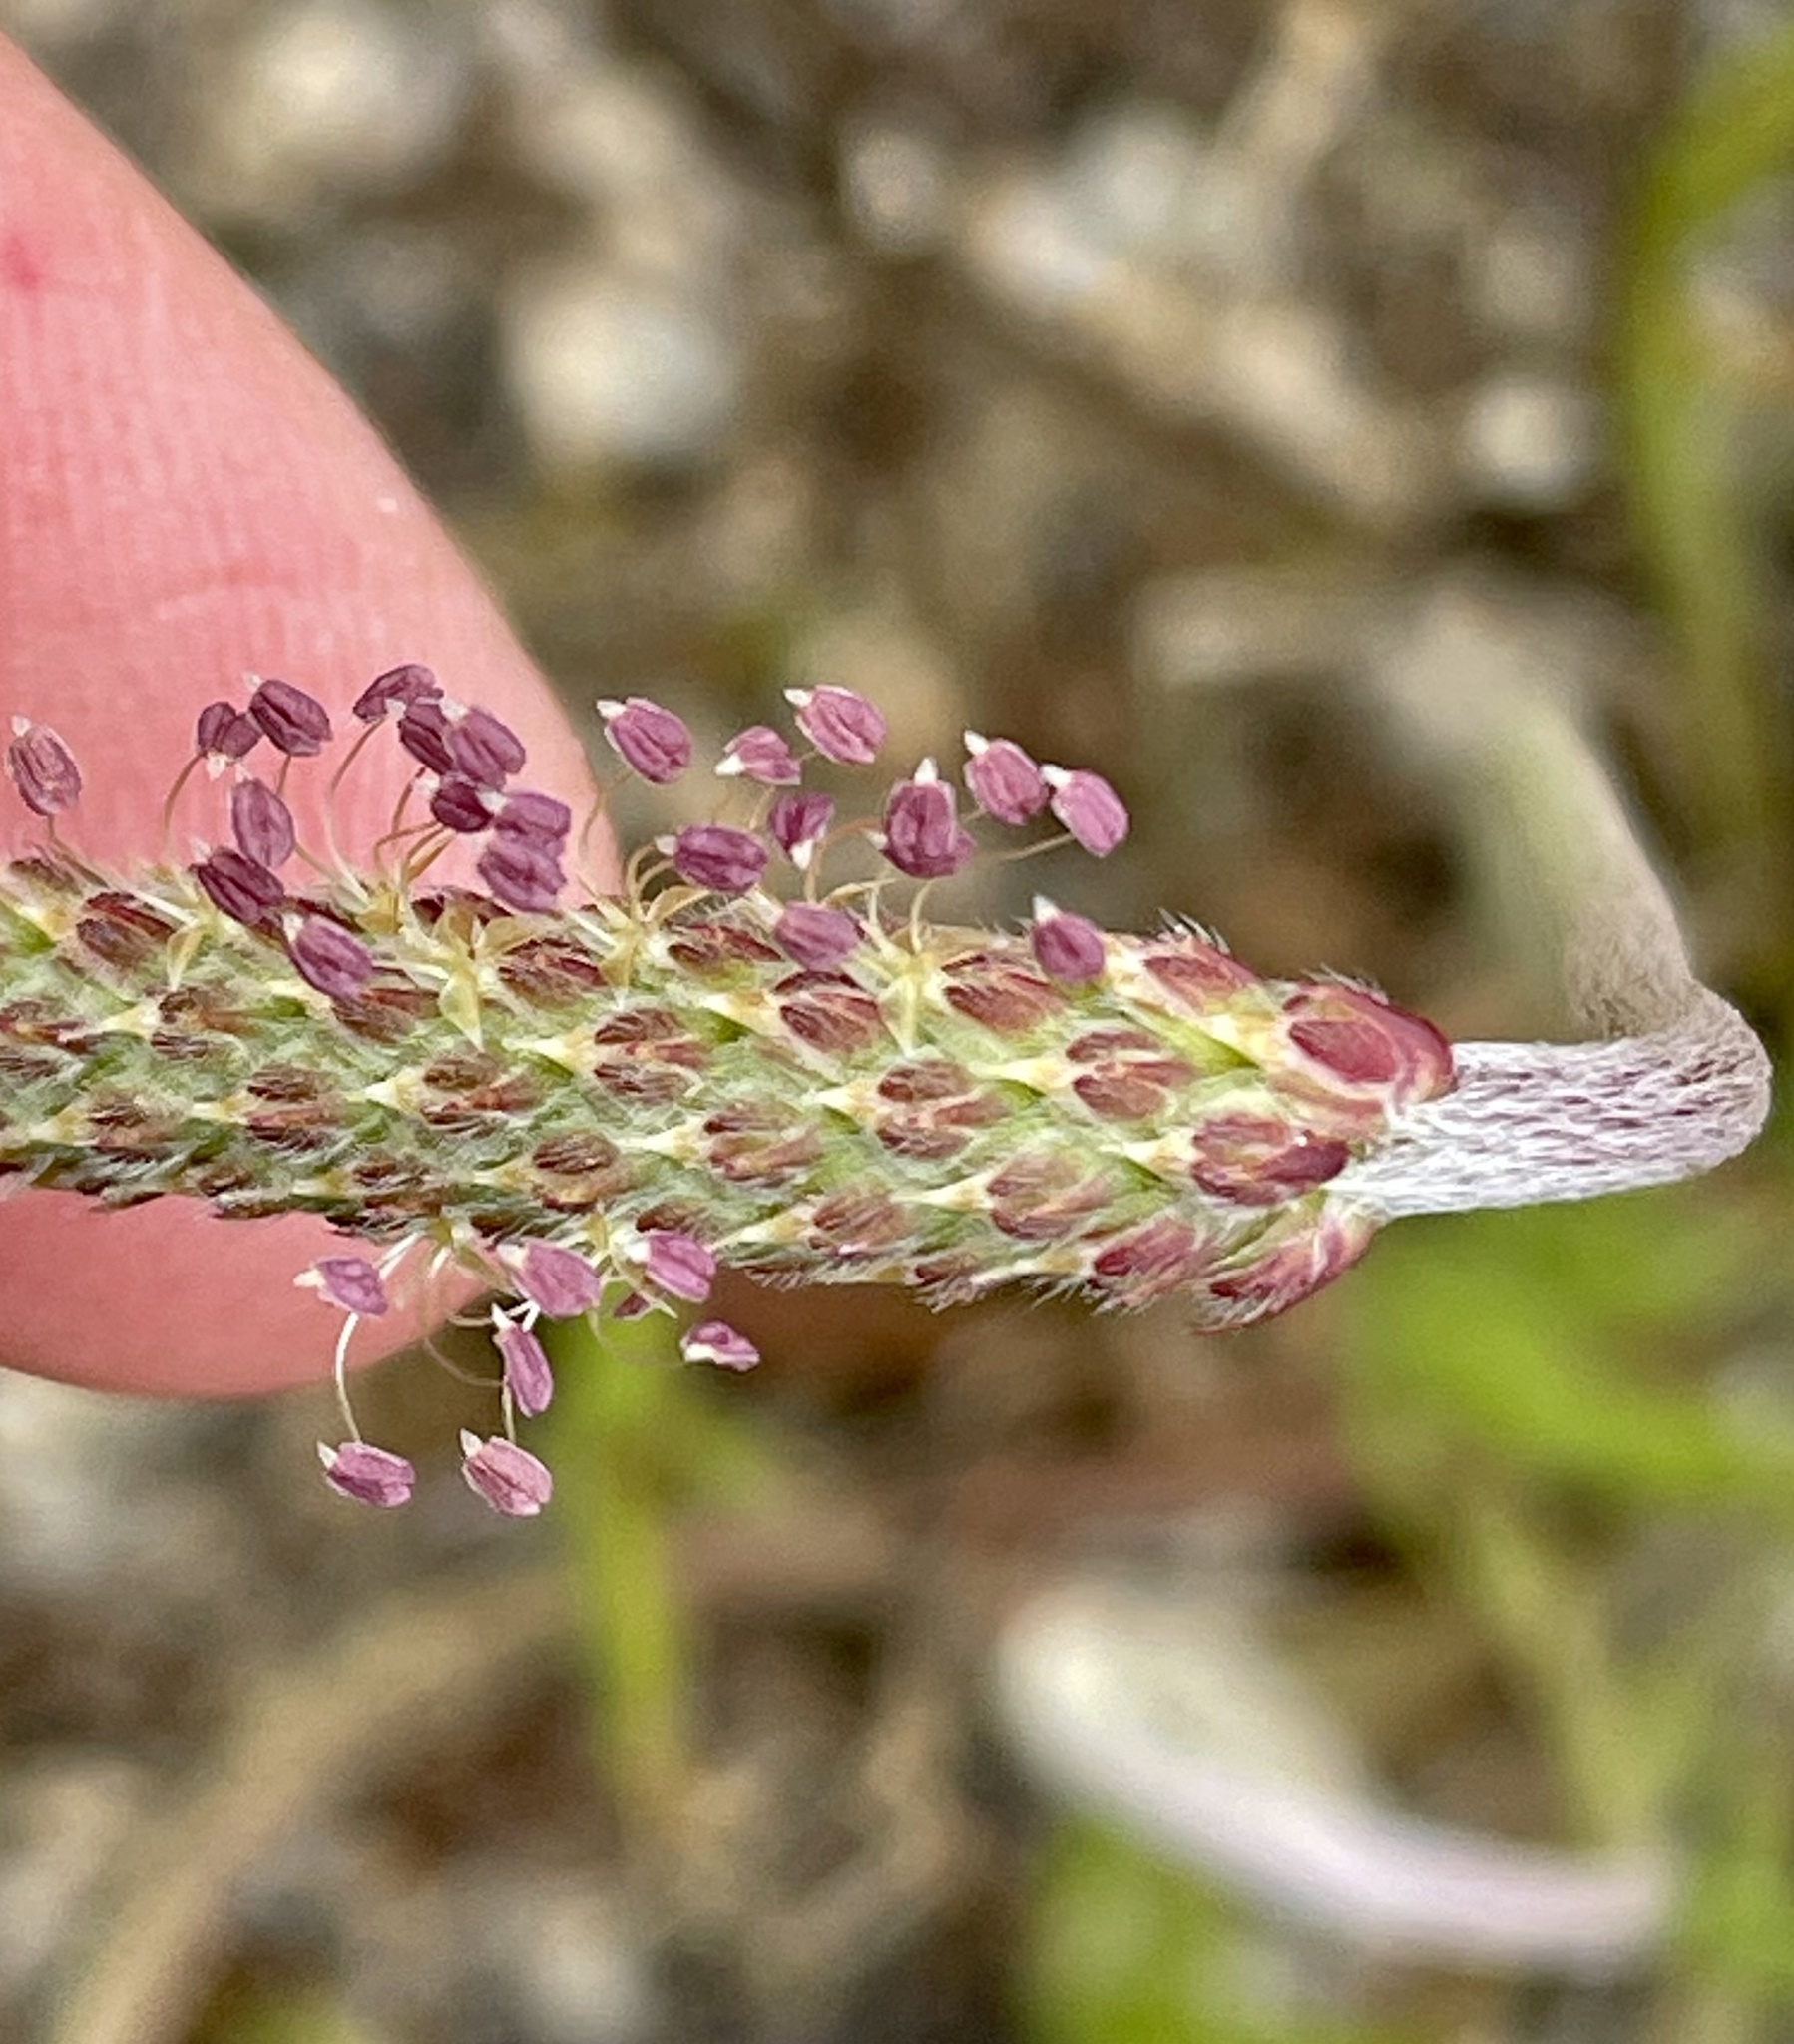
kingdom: Plantae
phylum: Tracheophyta
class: Magnoliopsida
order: Lamiales
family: Plantaginaceae
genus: Plantago
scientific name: Plantago coronopus
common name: Buck's-horn plantain
